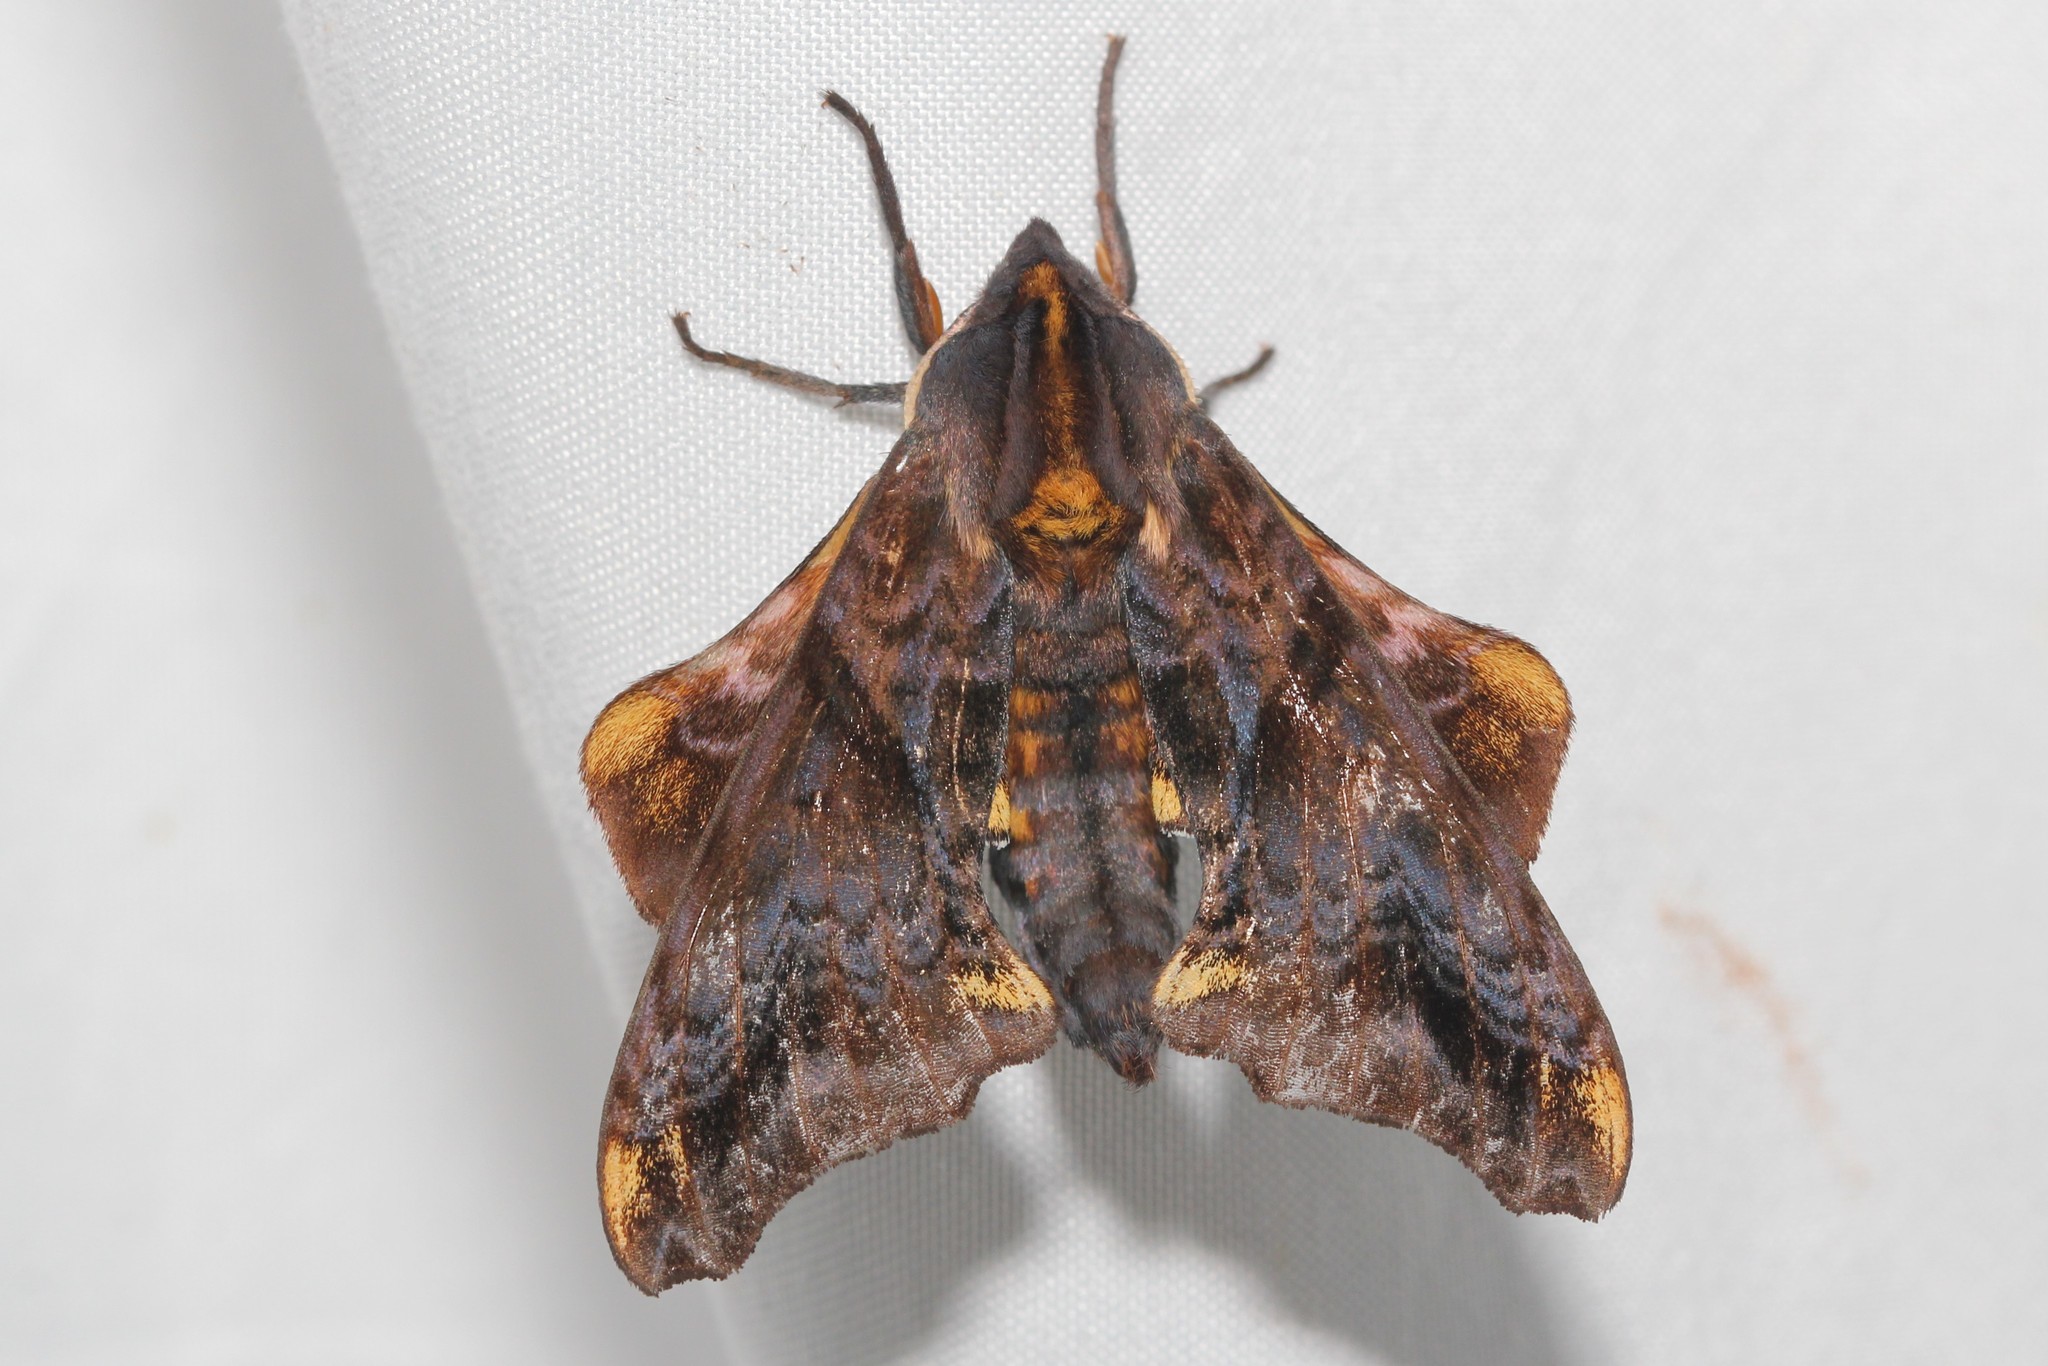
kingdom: Animalia
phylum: Arthropoda
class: Insecta
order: Lepidoptera
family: Sphingidae
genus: Paonias
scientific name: Paonias myops
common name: Small-eyed sphinx
